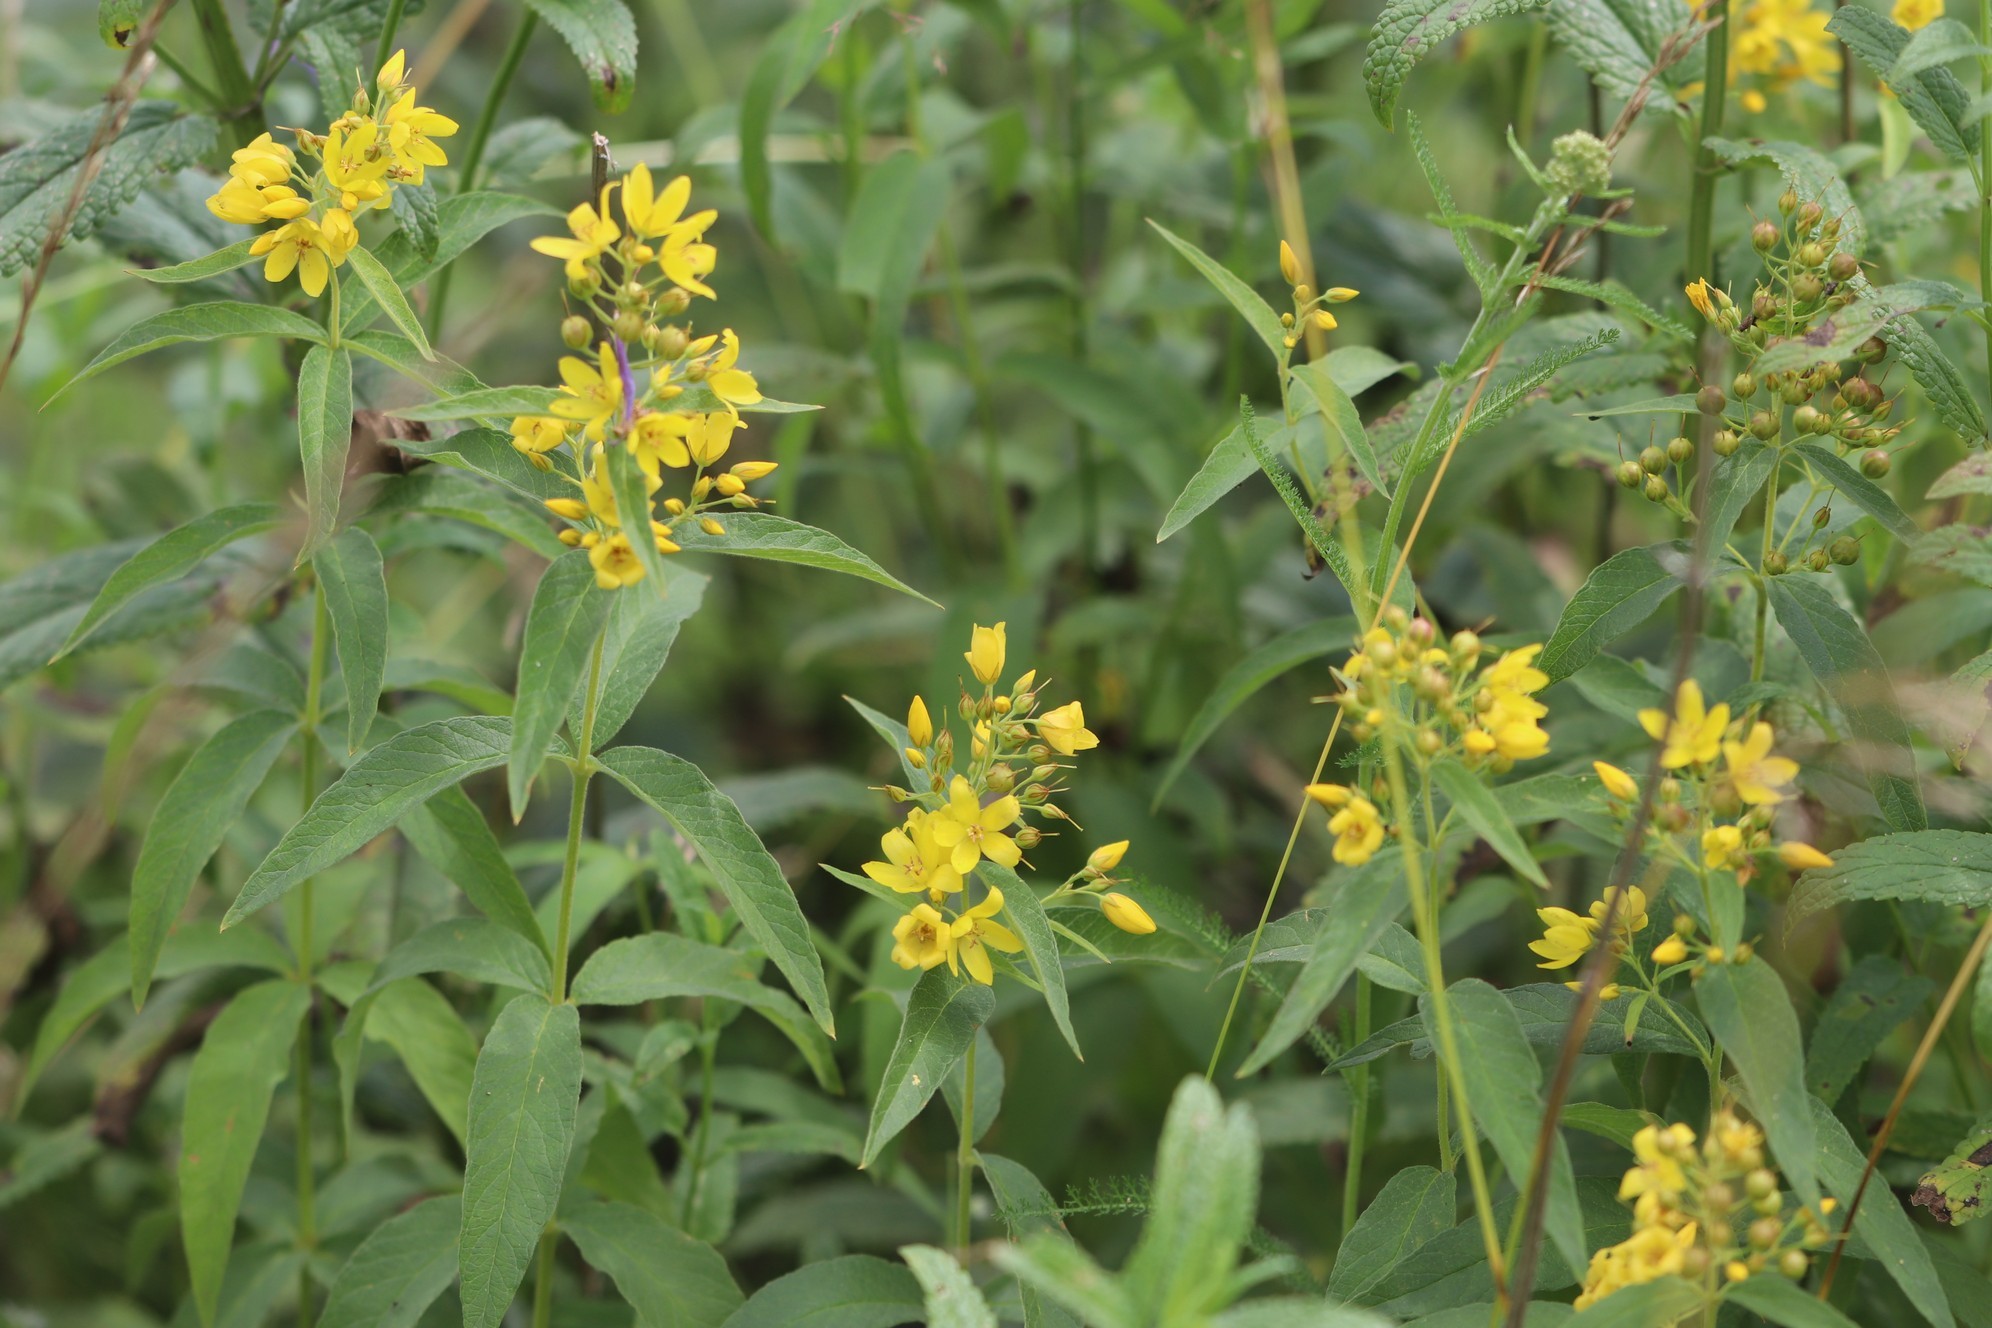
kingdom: Plantae
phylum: Tracheophyta
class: Magnoliopsida
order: Ericales
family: Primulaceae
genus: Lysimachia
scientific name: Lysimachia vulgaris
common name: Yellow loosestrife
